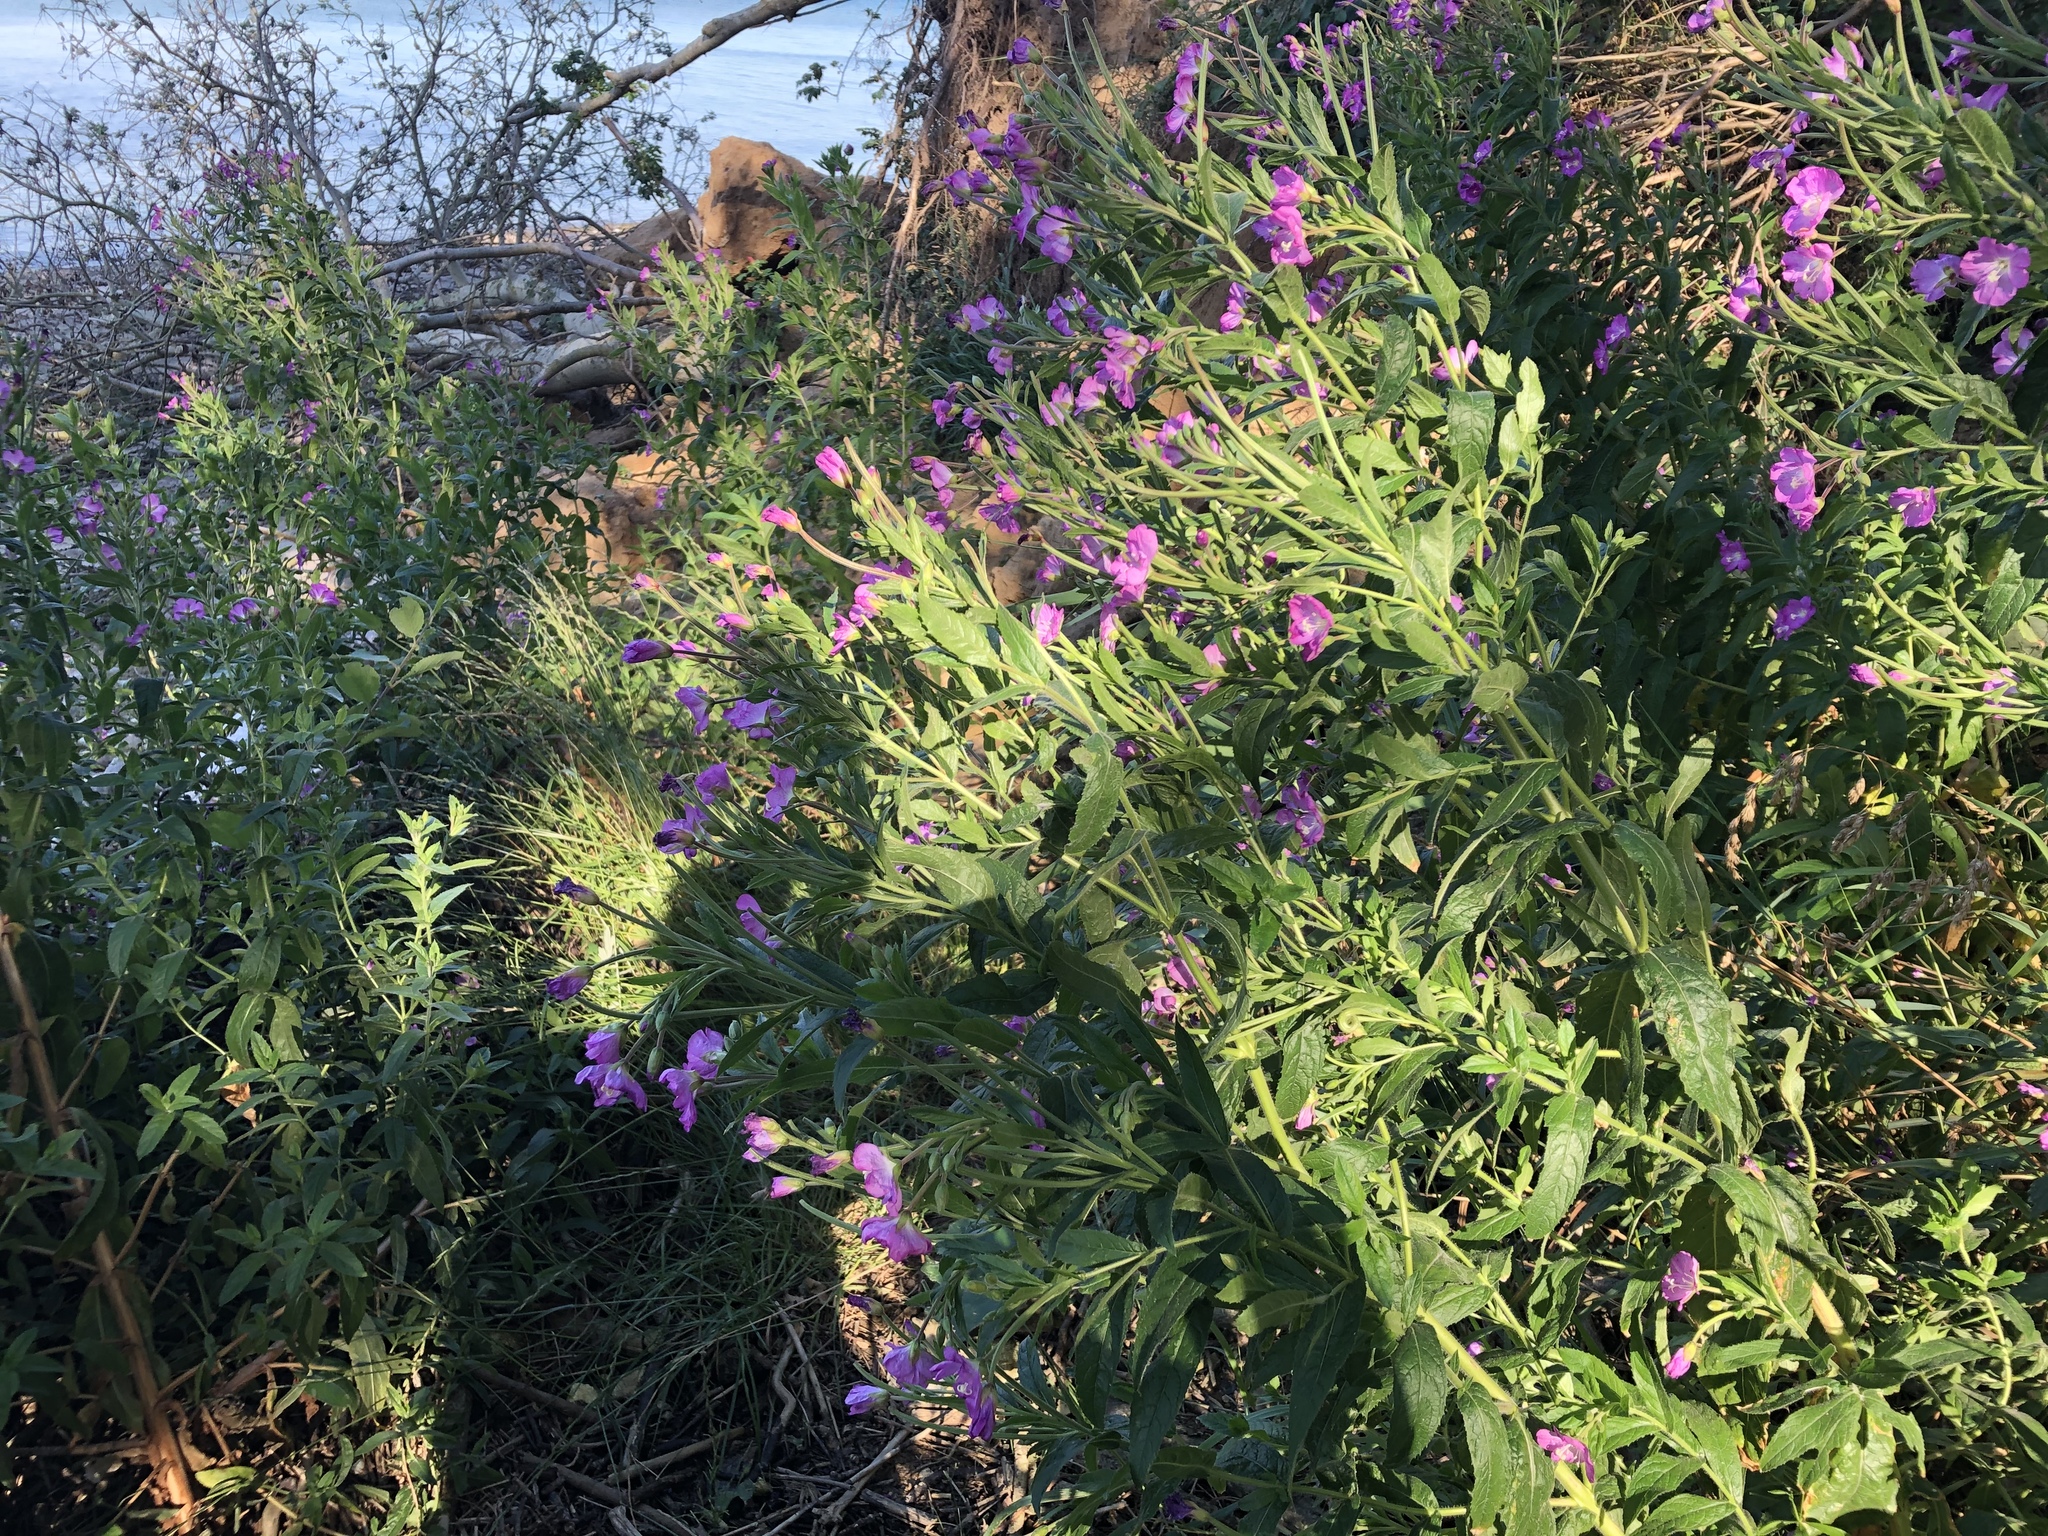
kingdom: Plantae
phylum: Tracheophyta
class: Magnoliopsida
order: Myrtales
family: Onagraceae
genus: Epilobium
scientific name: Epilobium hirsutum
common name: Great willowherb
